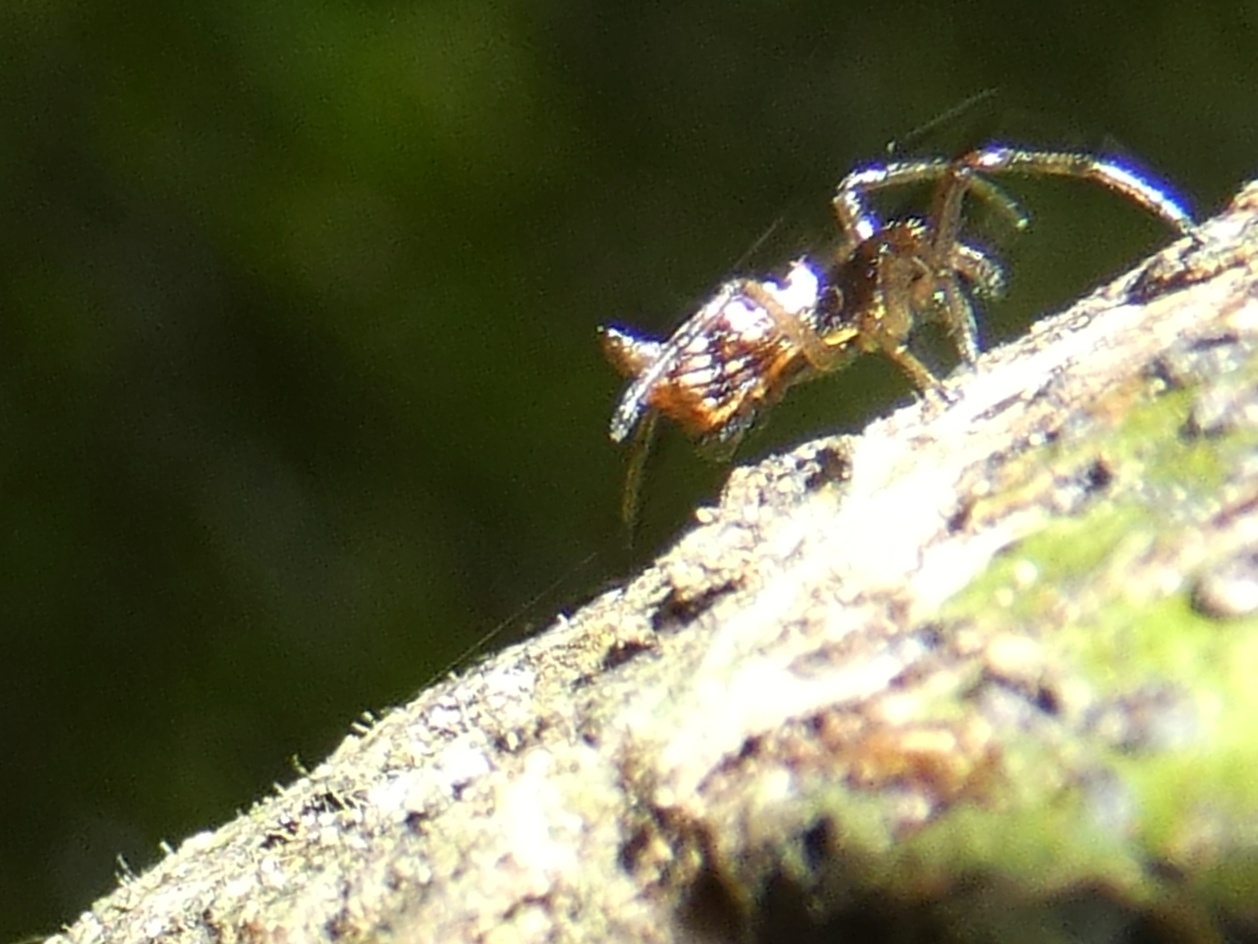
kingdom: Animalia
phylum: Arthropoda
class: Arachnida
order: Araneae
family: Araneidae
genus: Micrathena
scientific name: Micrathena saccata
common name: Orb weavers
